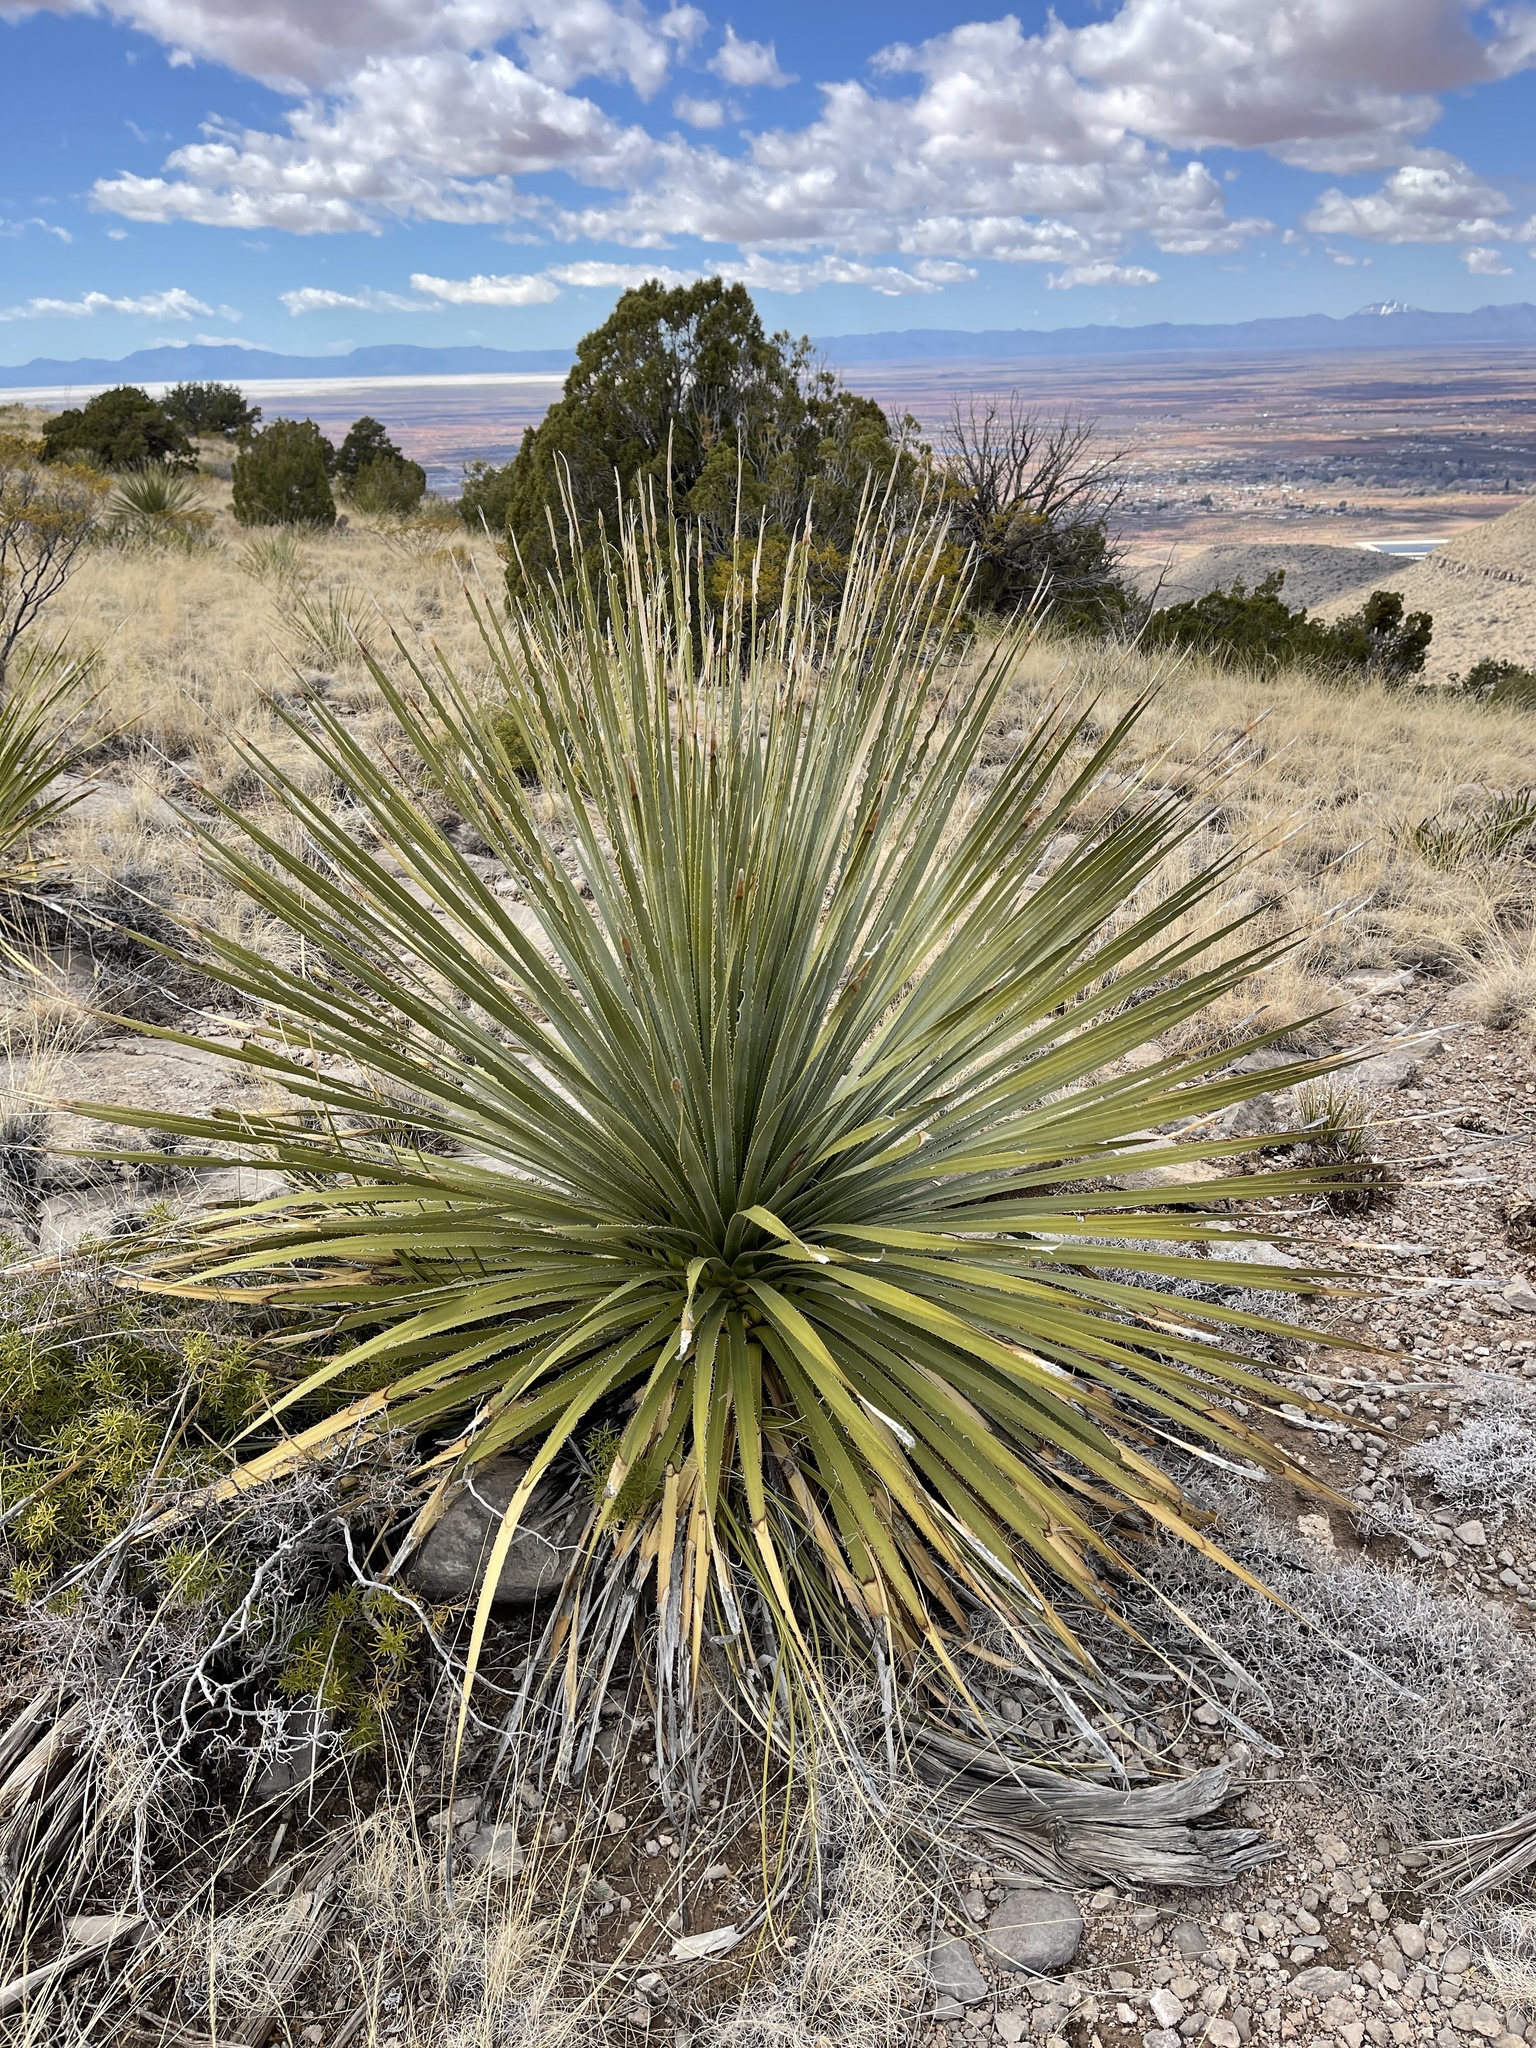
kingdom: Plantae
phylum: Tracheophyta
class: Liliopsida
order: Asparagales
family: Asparagaceae
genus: Dasylirion
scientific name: Dasylirion wheeleri
